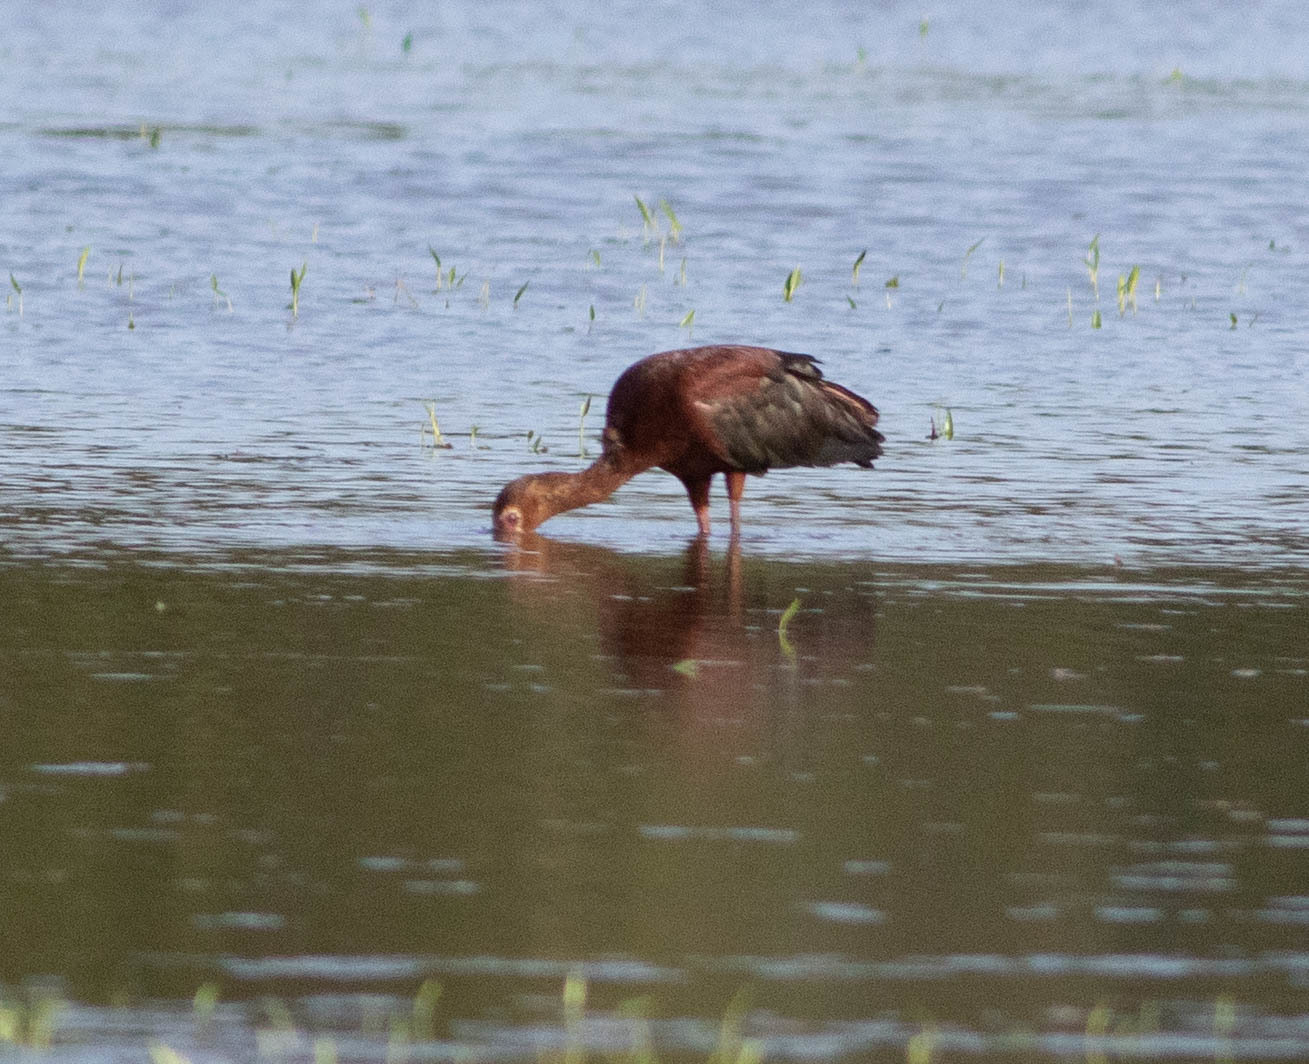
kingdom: Animalia
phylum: Chordata
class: Aves
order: Pelecaniformes
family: Threskiornithidae
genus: Plegadis
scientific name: Plegadis chihi
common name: White-faced ibis
